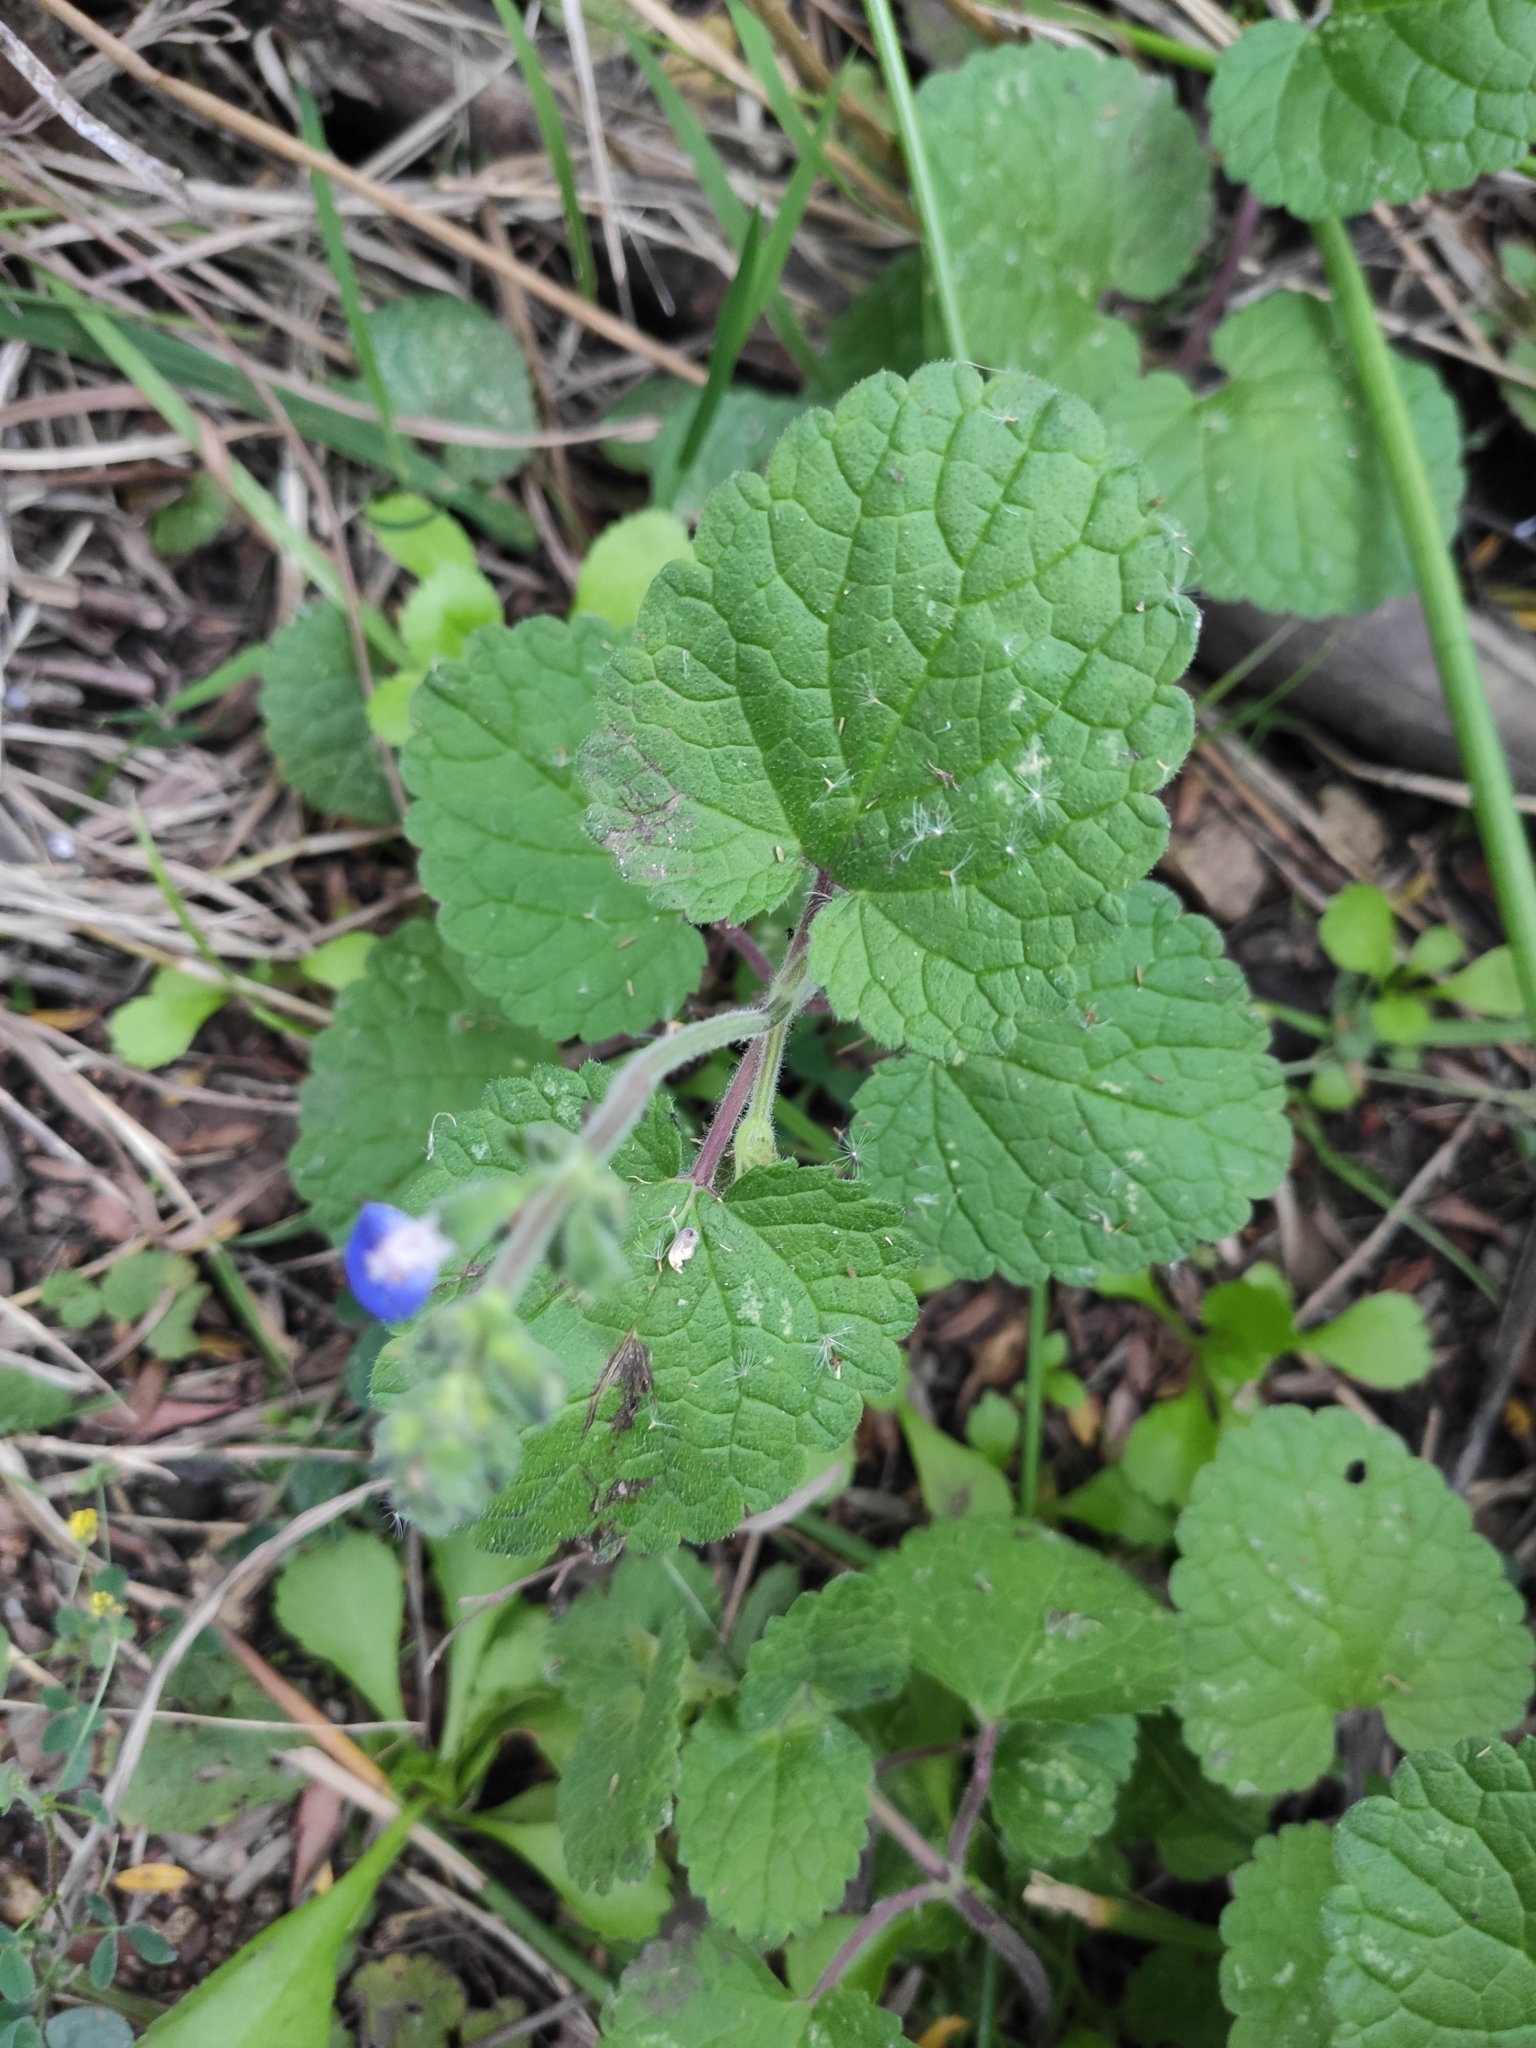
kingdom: Plantae
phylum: Tracheophyta
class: Magnoliopsida
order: Lamiales
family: Lamiaceae
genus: Salvia
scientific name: Salvia procurrens
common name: Blue creeper
